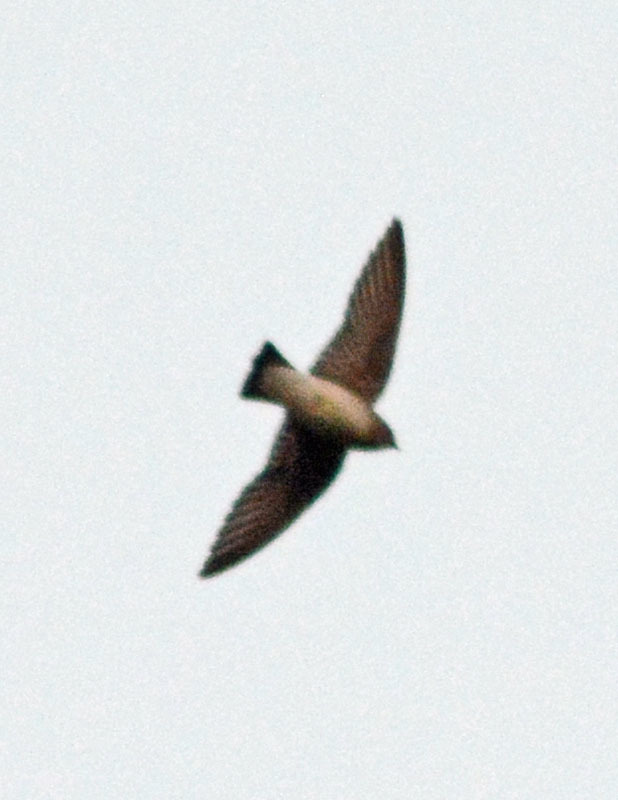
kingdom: Animalia
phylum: Chordata
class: Aves
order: Passeriformes
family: Hirundinidae
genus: Stelgidopteryx
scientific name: Stelgidopteryx serripennis
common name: Northern rough-winged swallow
